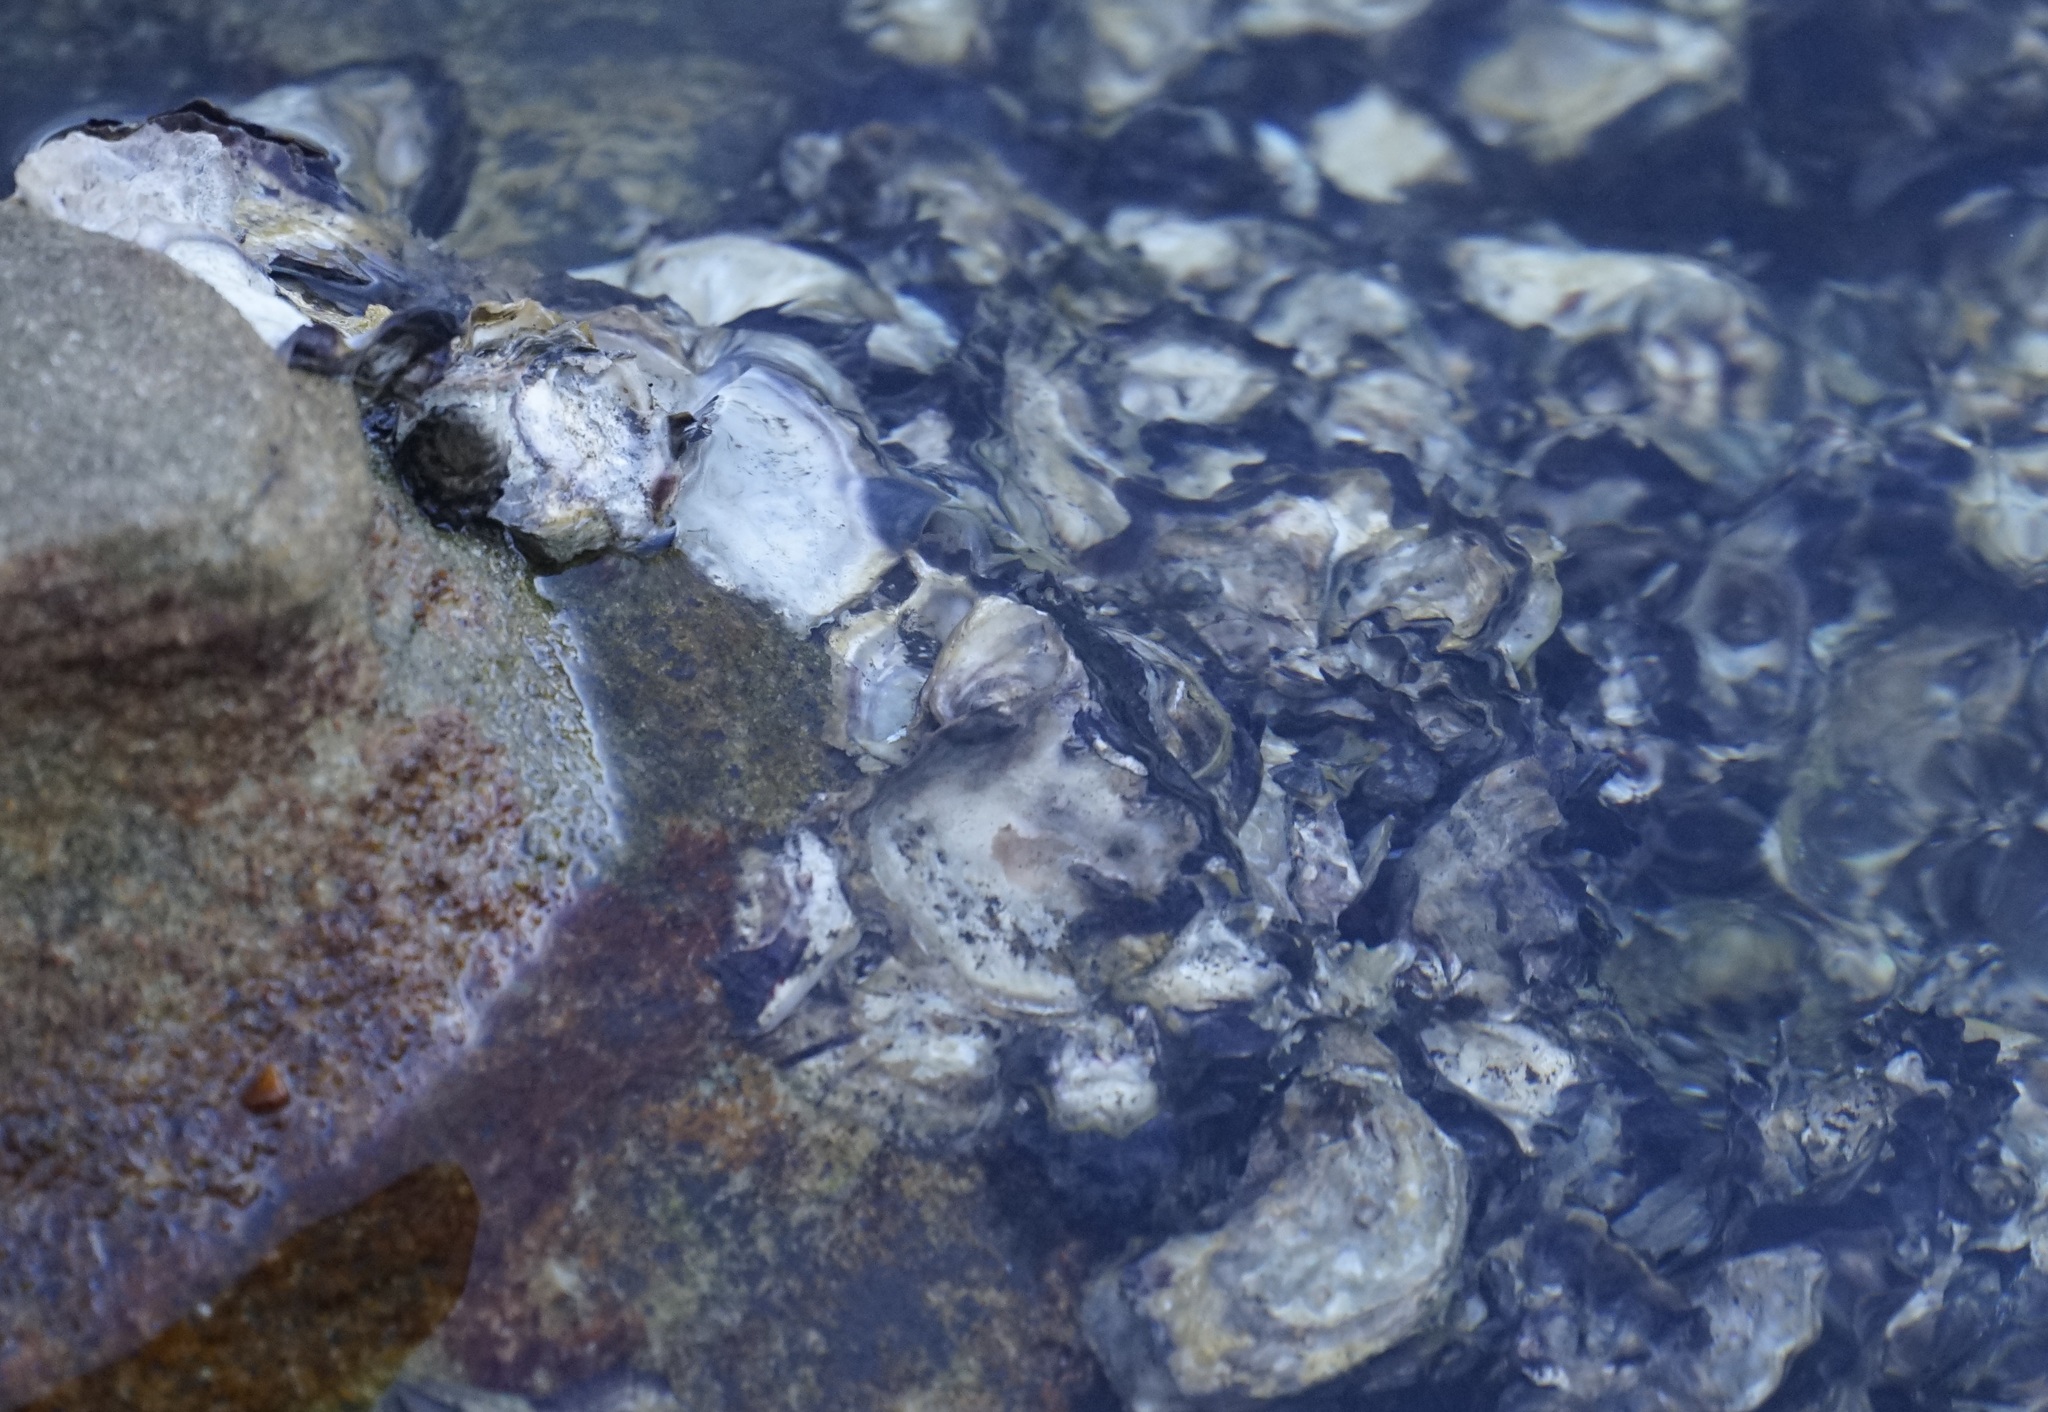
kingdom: Animalia
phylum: Mollusca
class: Bivalvia
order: Ostreida
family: Ostreidae
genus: Saccostrea
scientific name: Saccostrea glomerata
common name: Sydney cupped oyster
